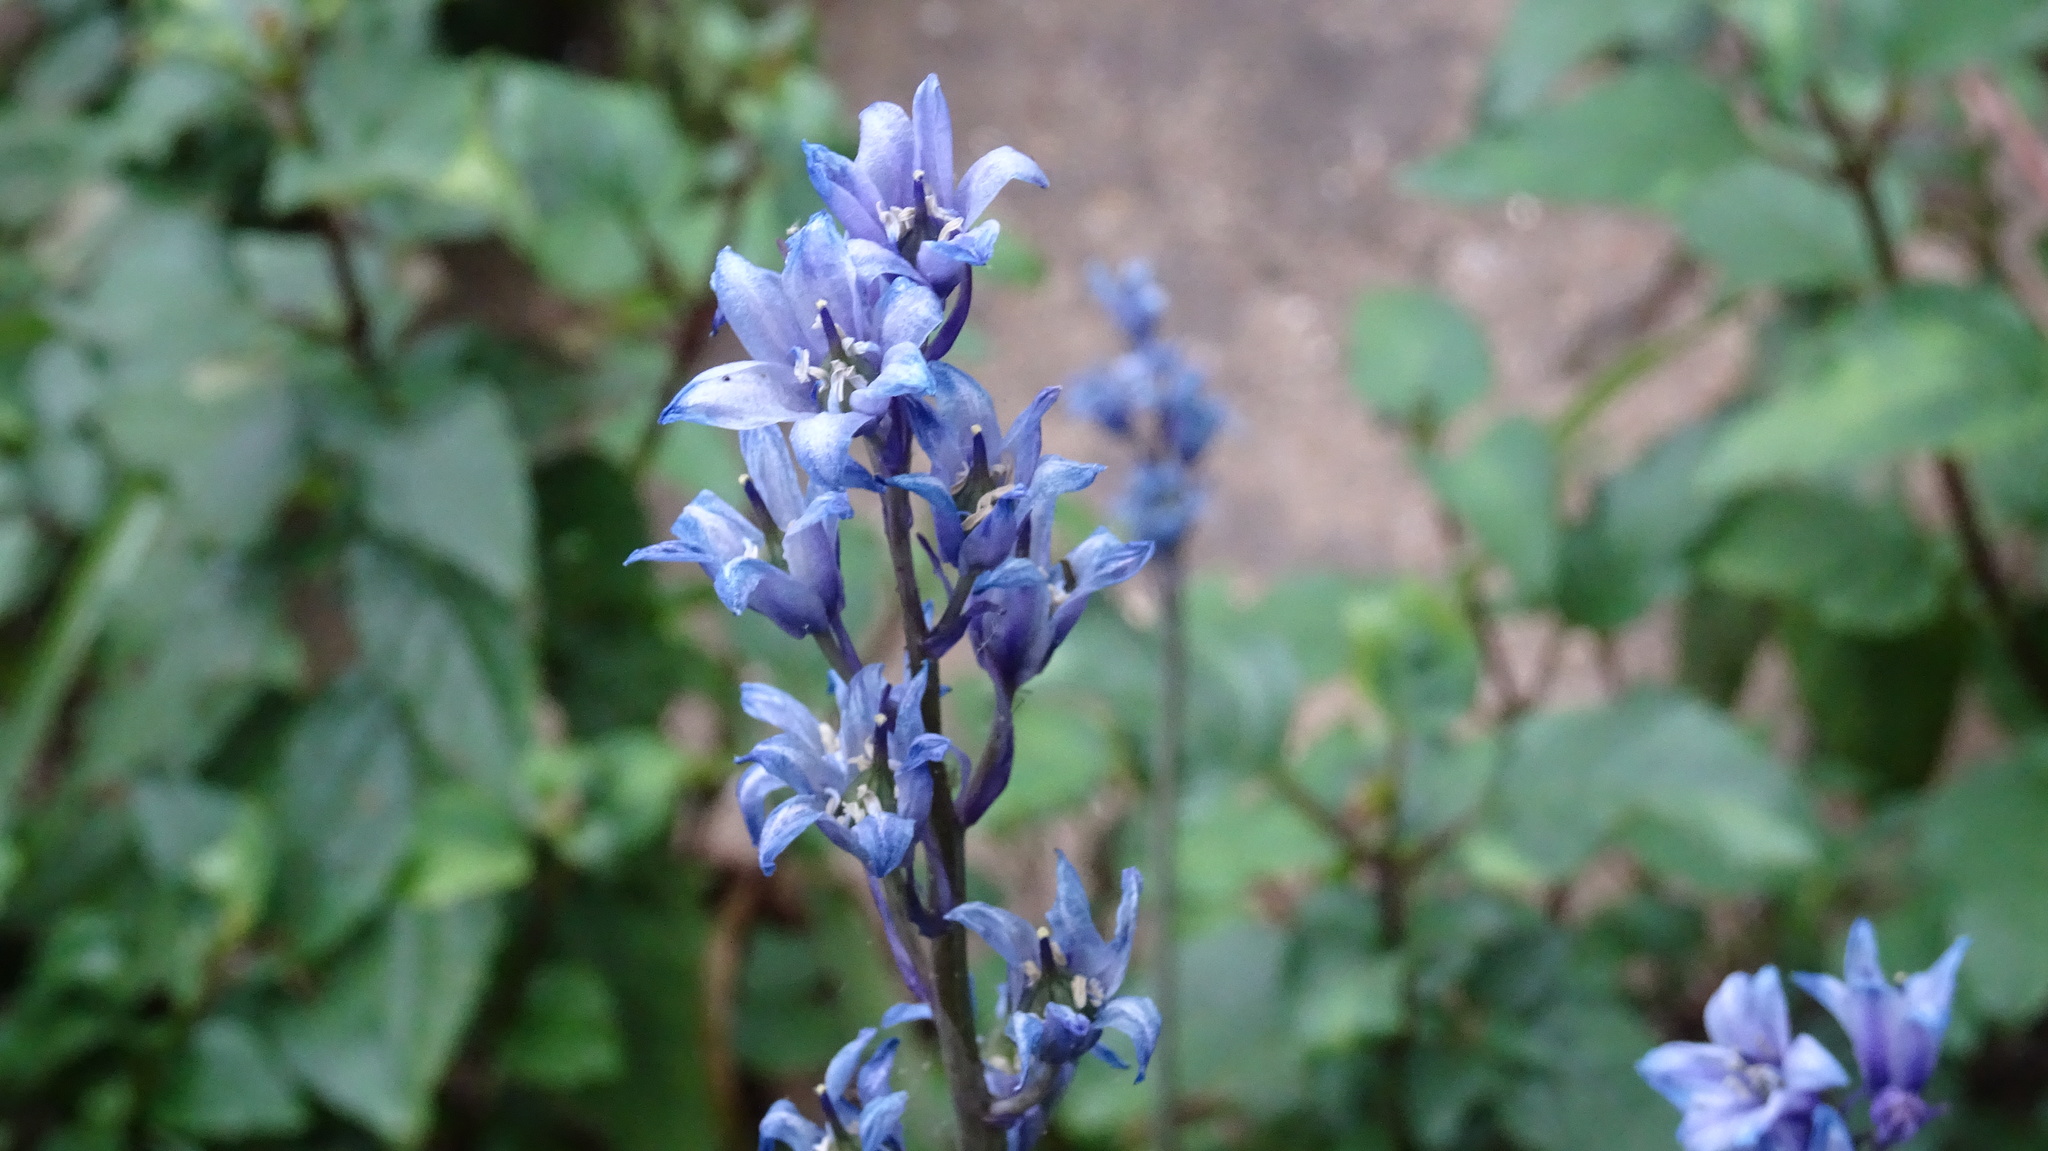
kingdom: Plantae
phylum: Tracheophyta
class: Liliopsida
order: Asparagales
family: Asparagaceae
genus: Hyacinthoides
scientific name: Hyacinthoides massartiana
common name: Hyacinthoides
